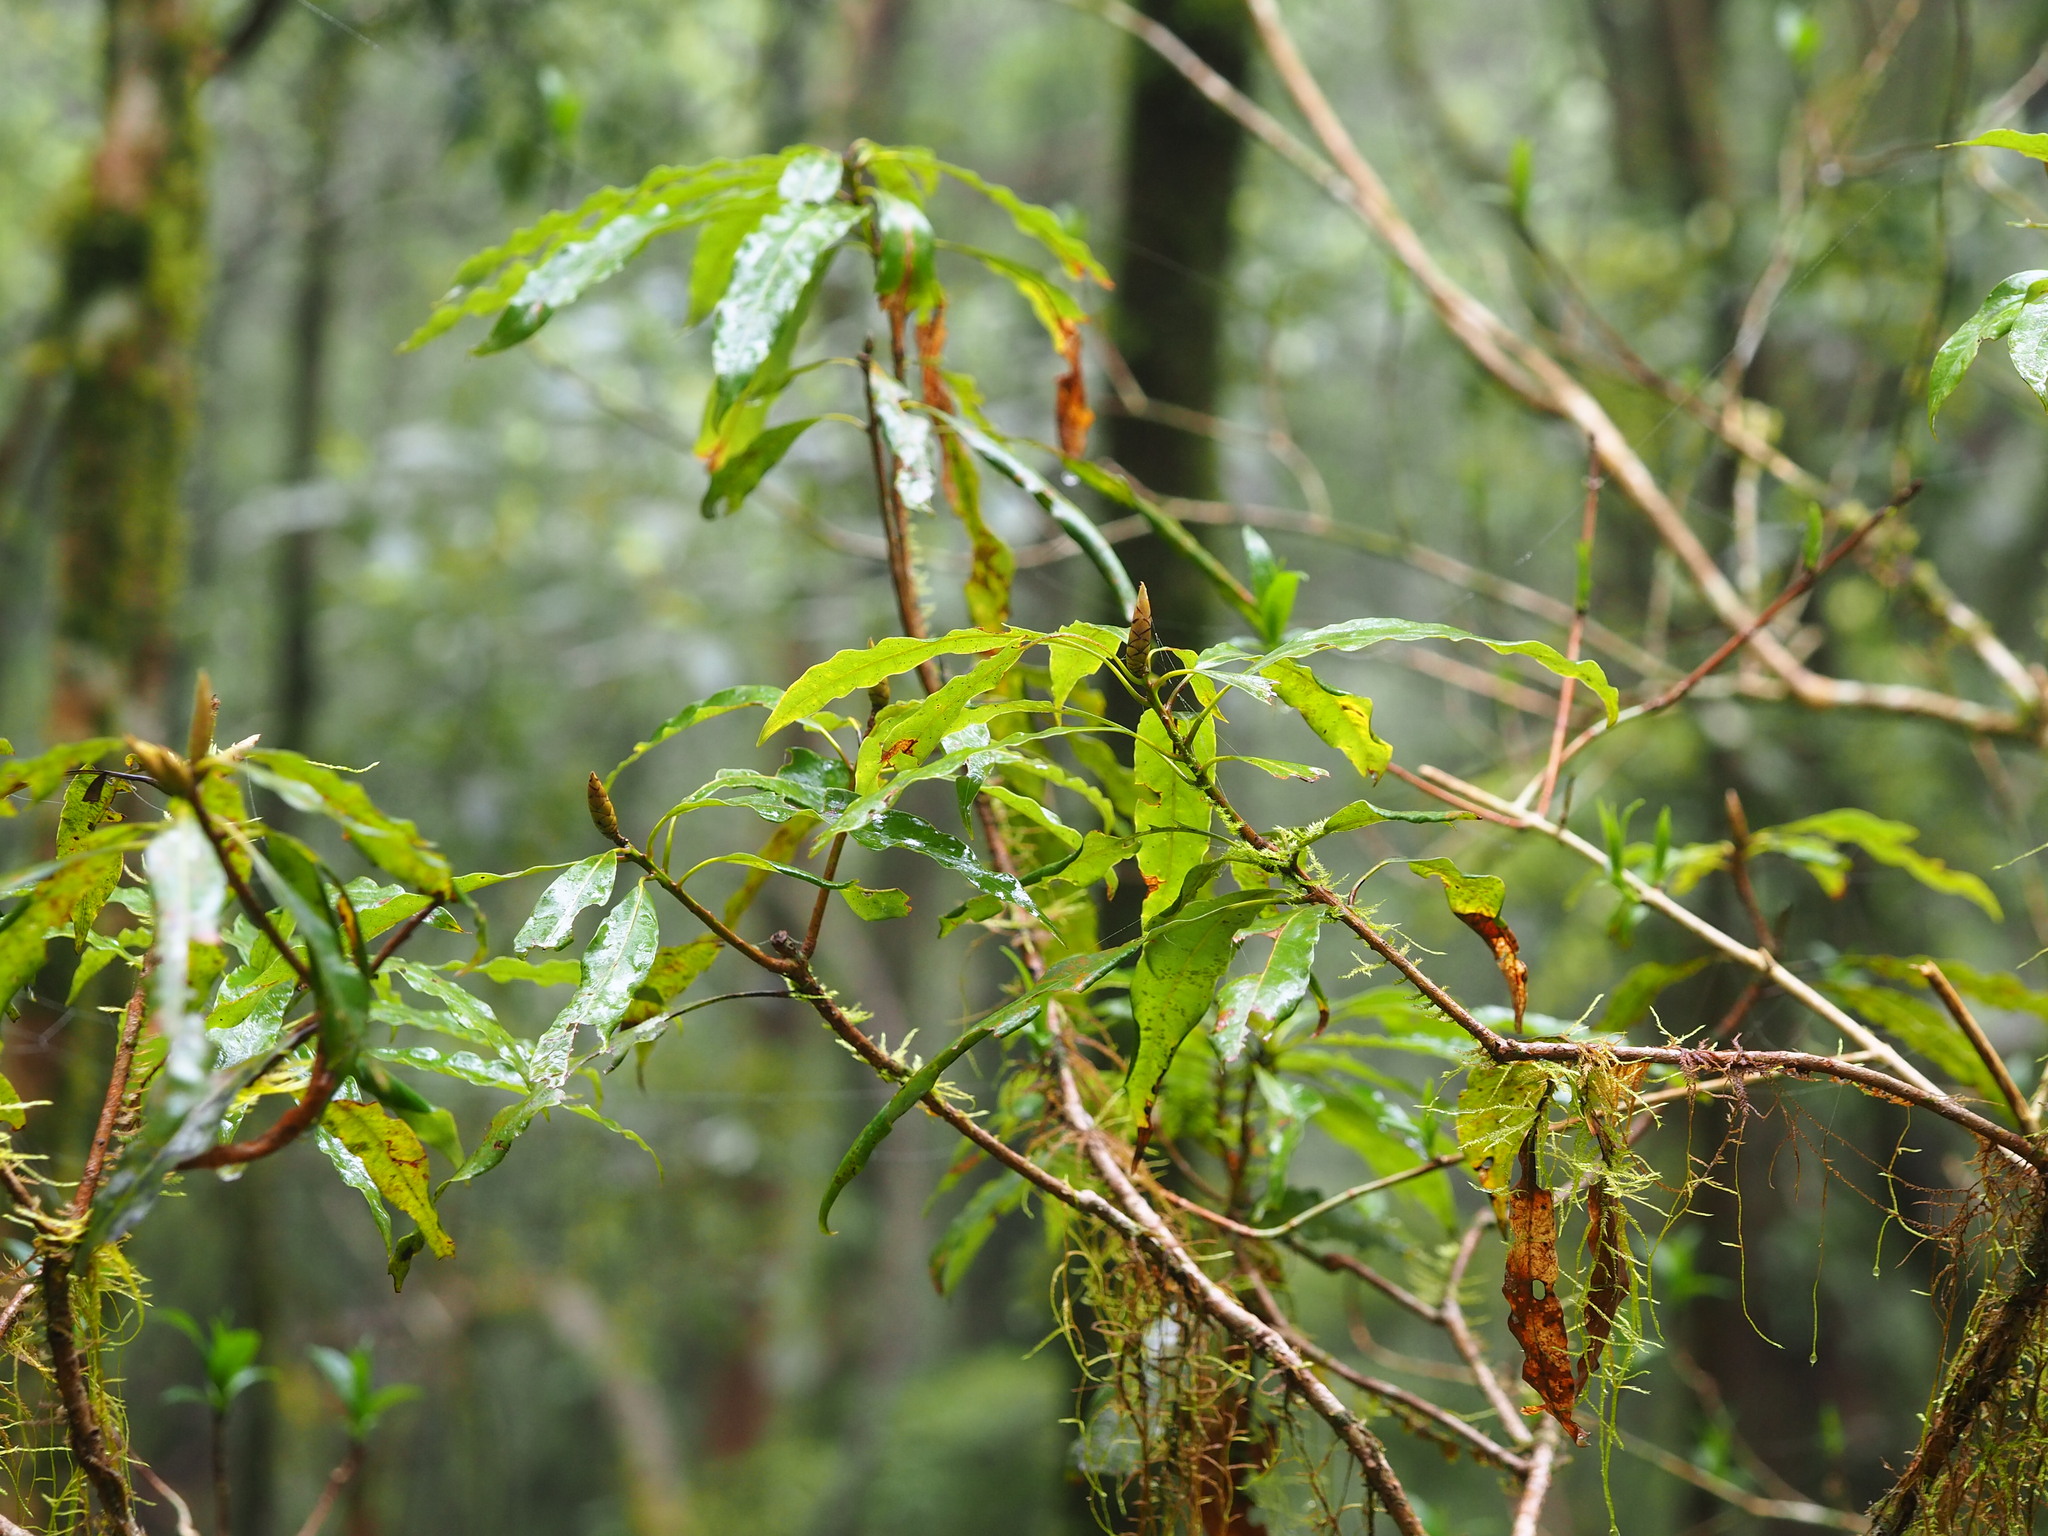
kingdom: Plantae
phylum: Tracheophyta
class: Magnoliopsida
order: Laurales
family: Lauraceae
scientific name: Lauraceae
